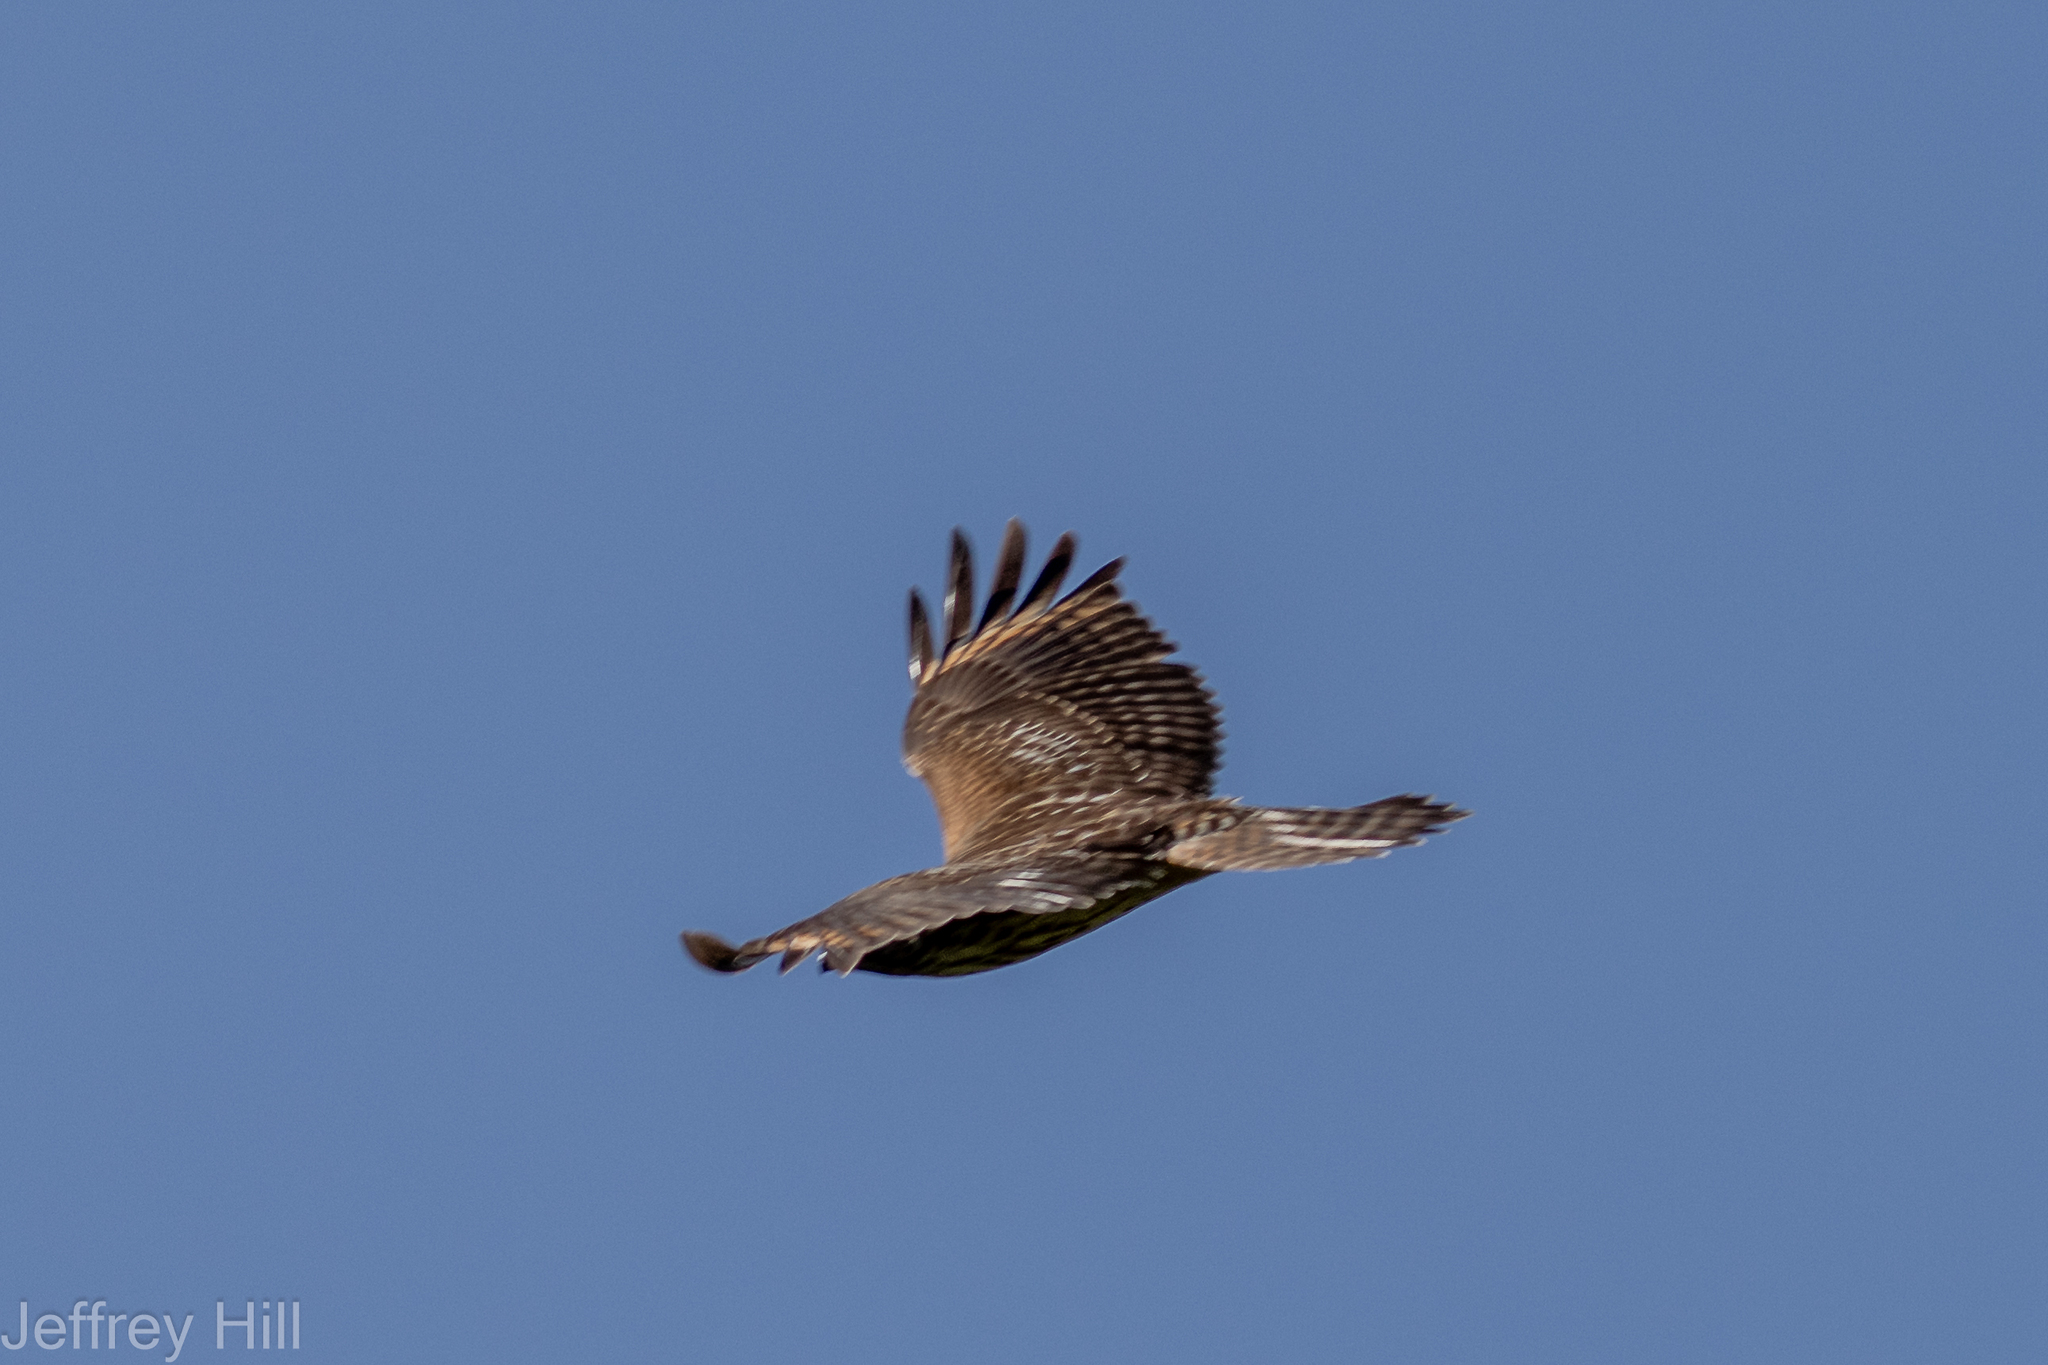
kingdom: Animalia
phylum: Chordata
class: Aves
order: Accipitriformes
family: Accipitridae
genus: Buteo
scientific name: Buteo lineatus
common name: Red-shouldered hawk
